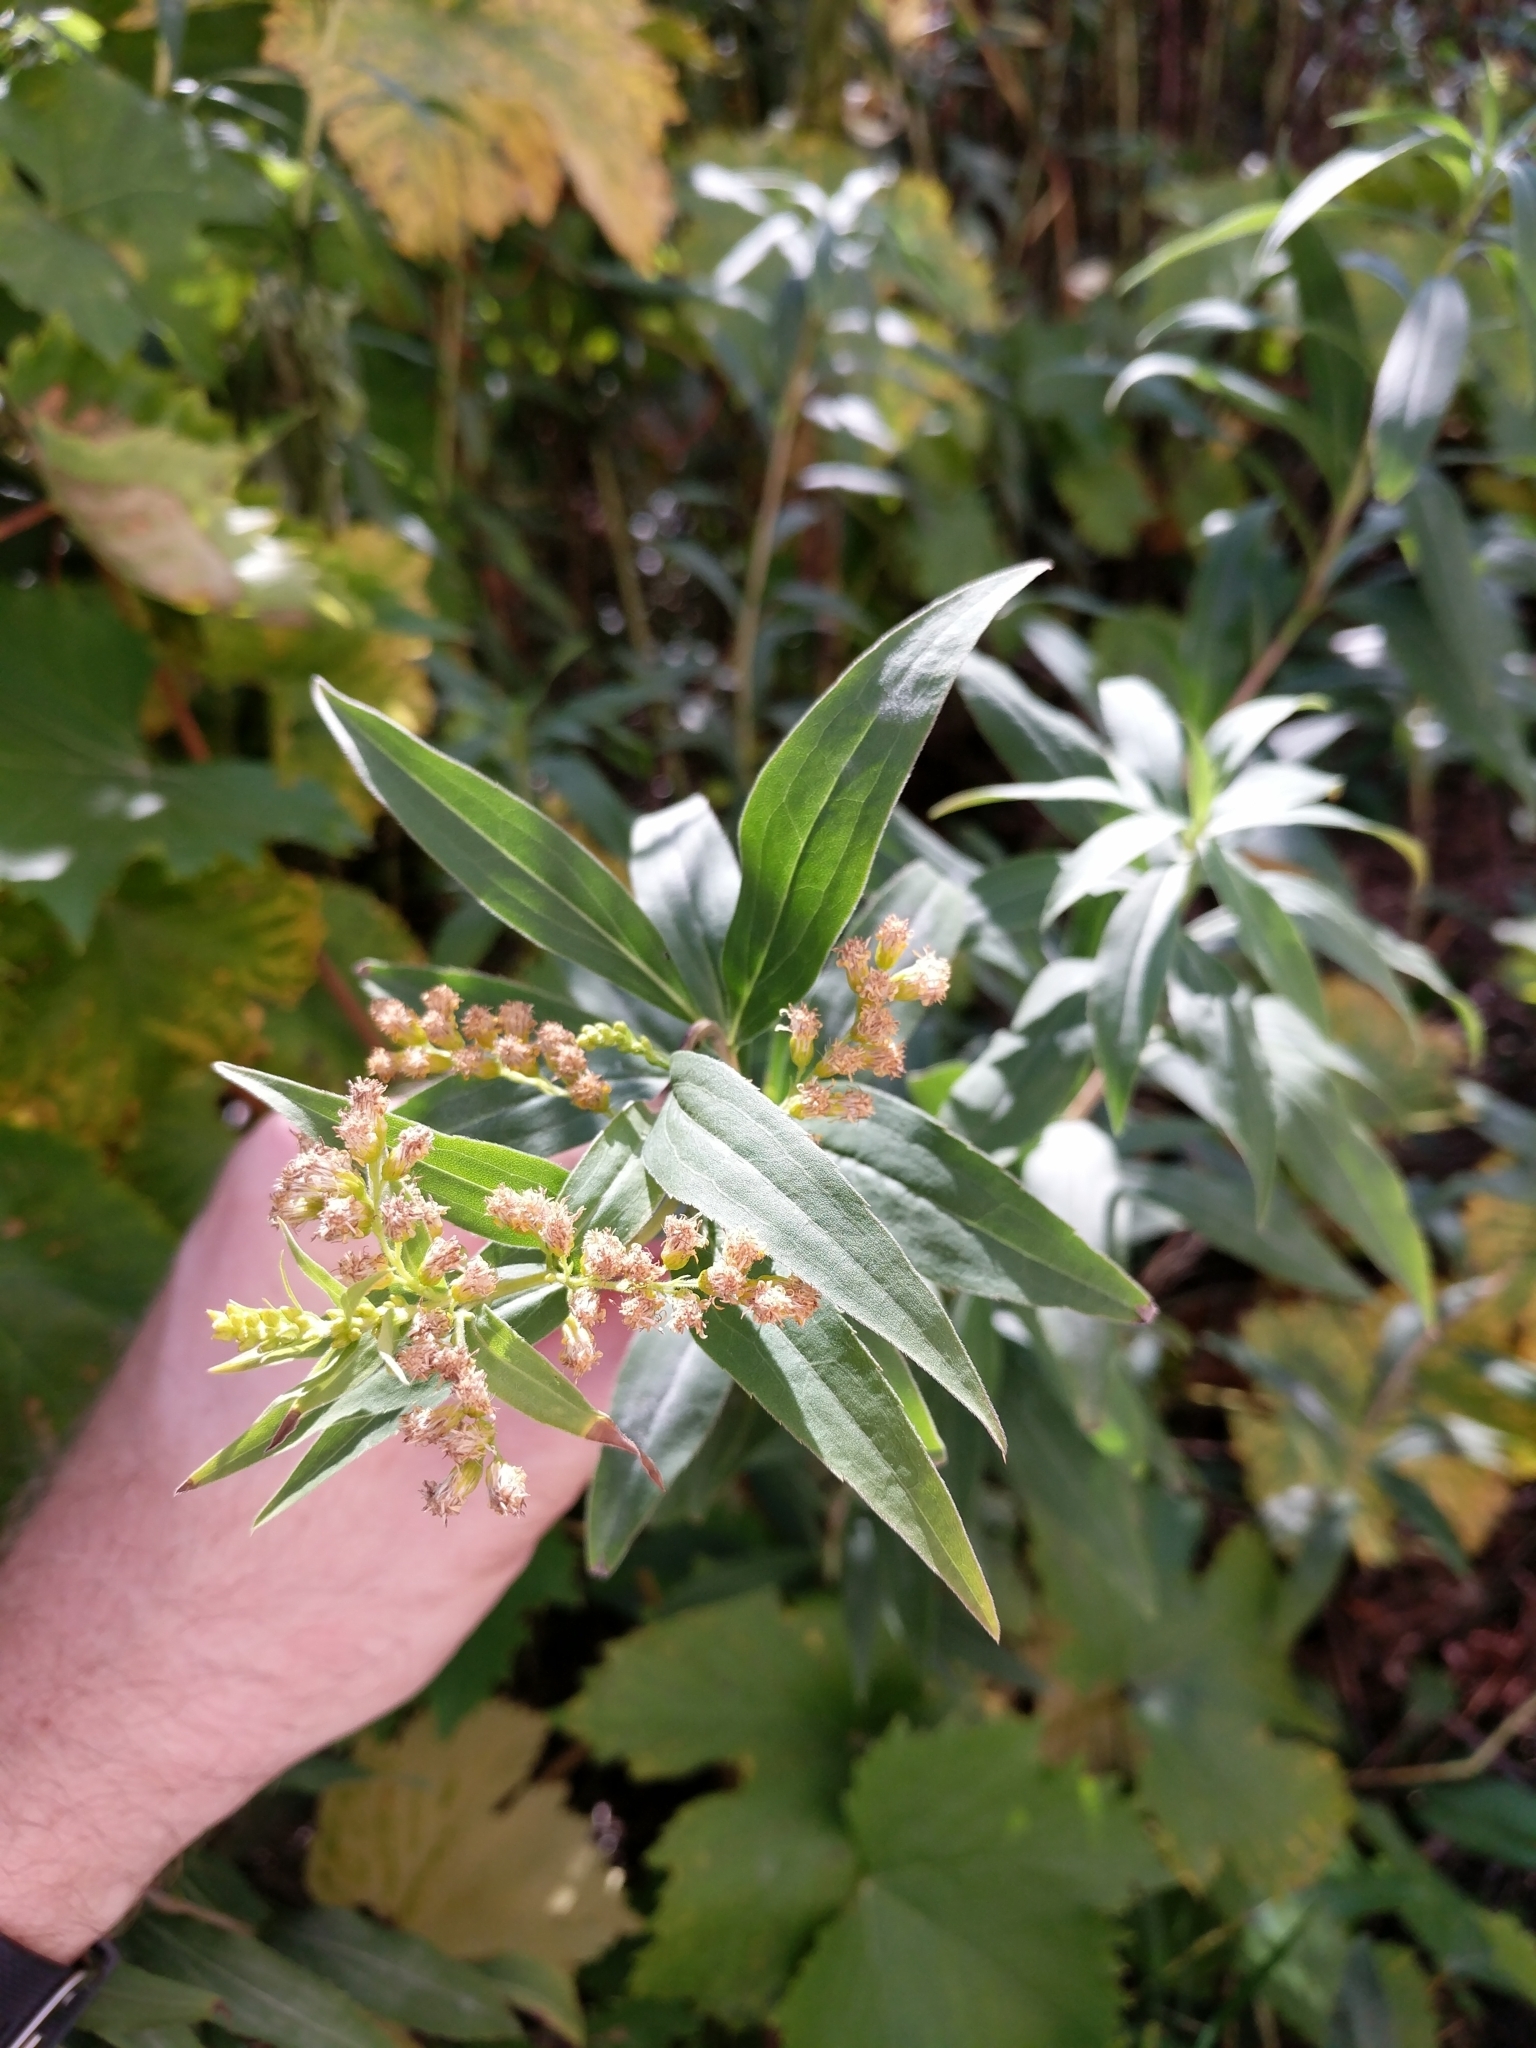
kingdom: Plantae
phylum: Tracheophyta
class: Magnoliopsida
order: Asterales
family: Asteraceae
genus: Solidago
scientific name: Solidago gigantea
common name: Giant goldenrod
